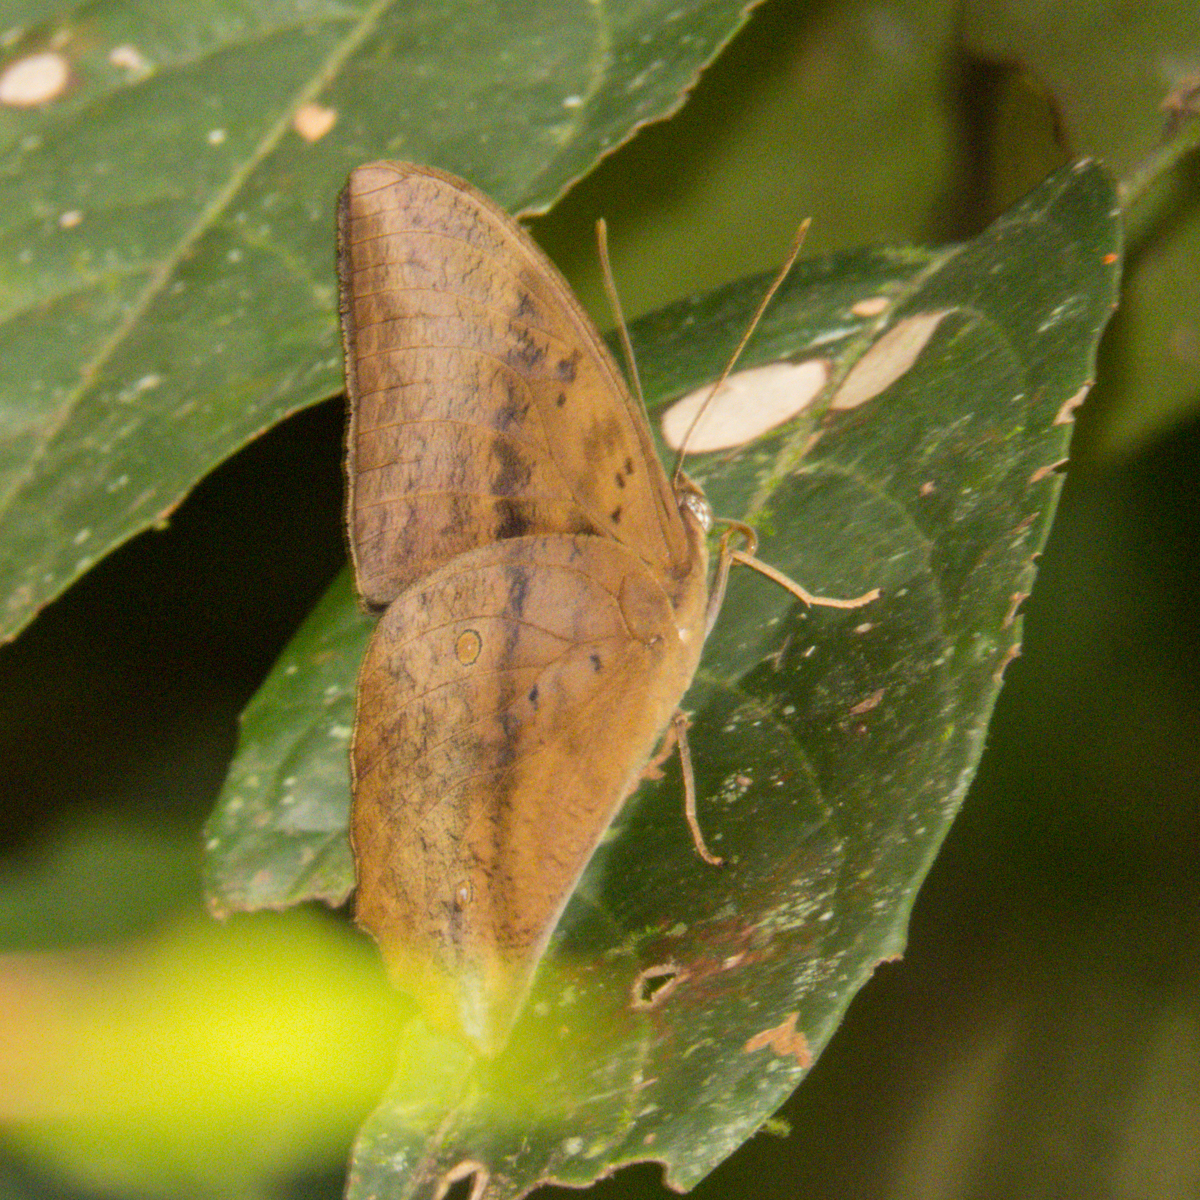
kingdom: Animalia
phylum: Arthropoda
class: Insecta
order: Lepidoptera
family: Nymphalidae
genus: Discophora
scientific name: Discophora sondaica
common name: Common duffer
